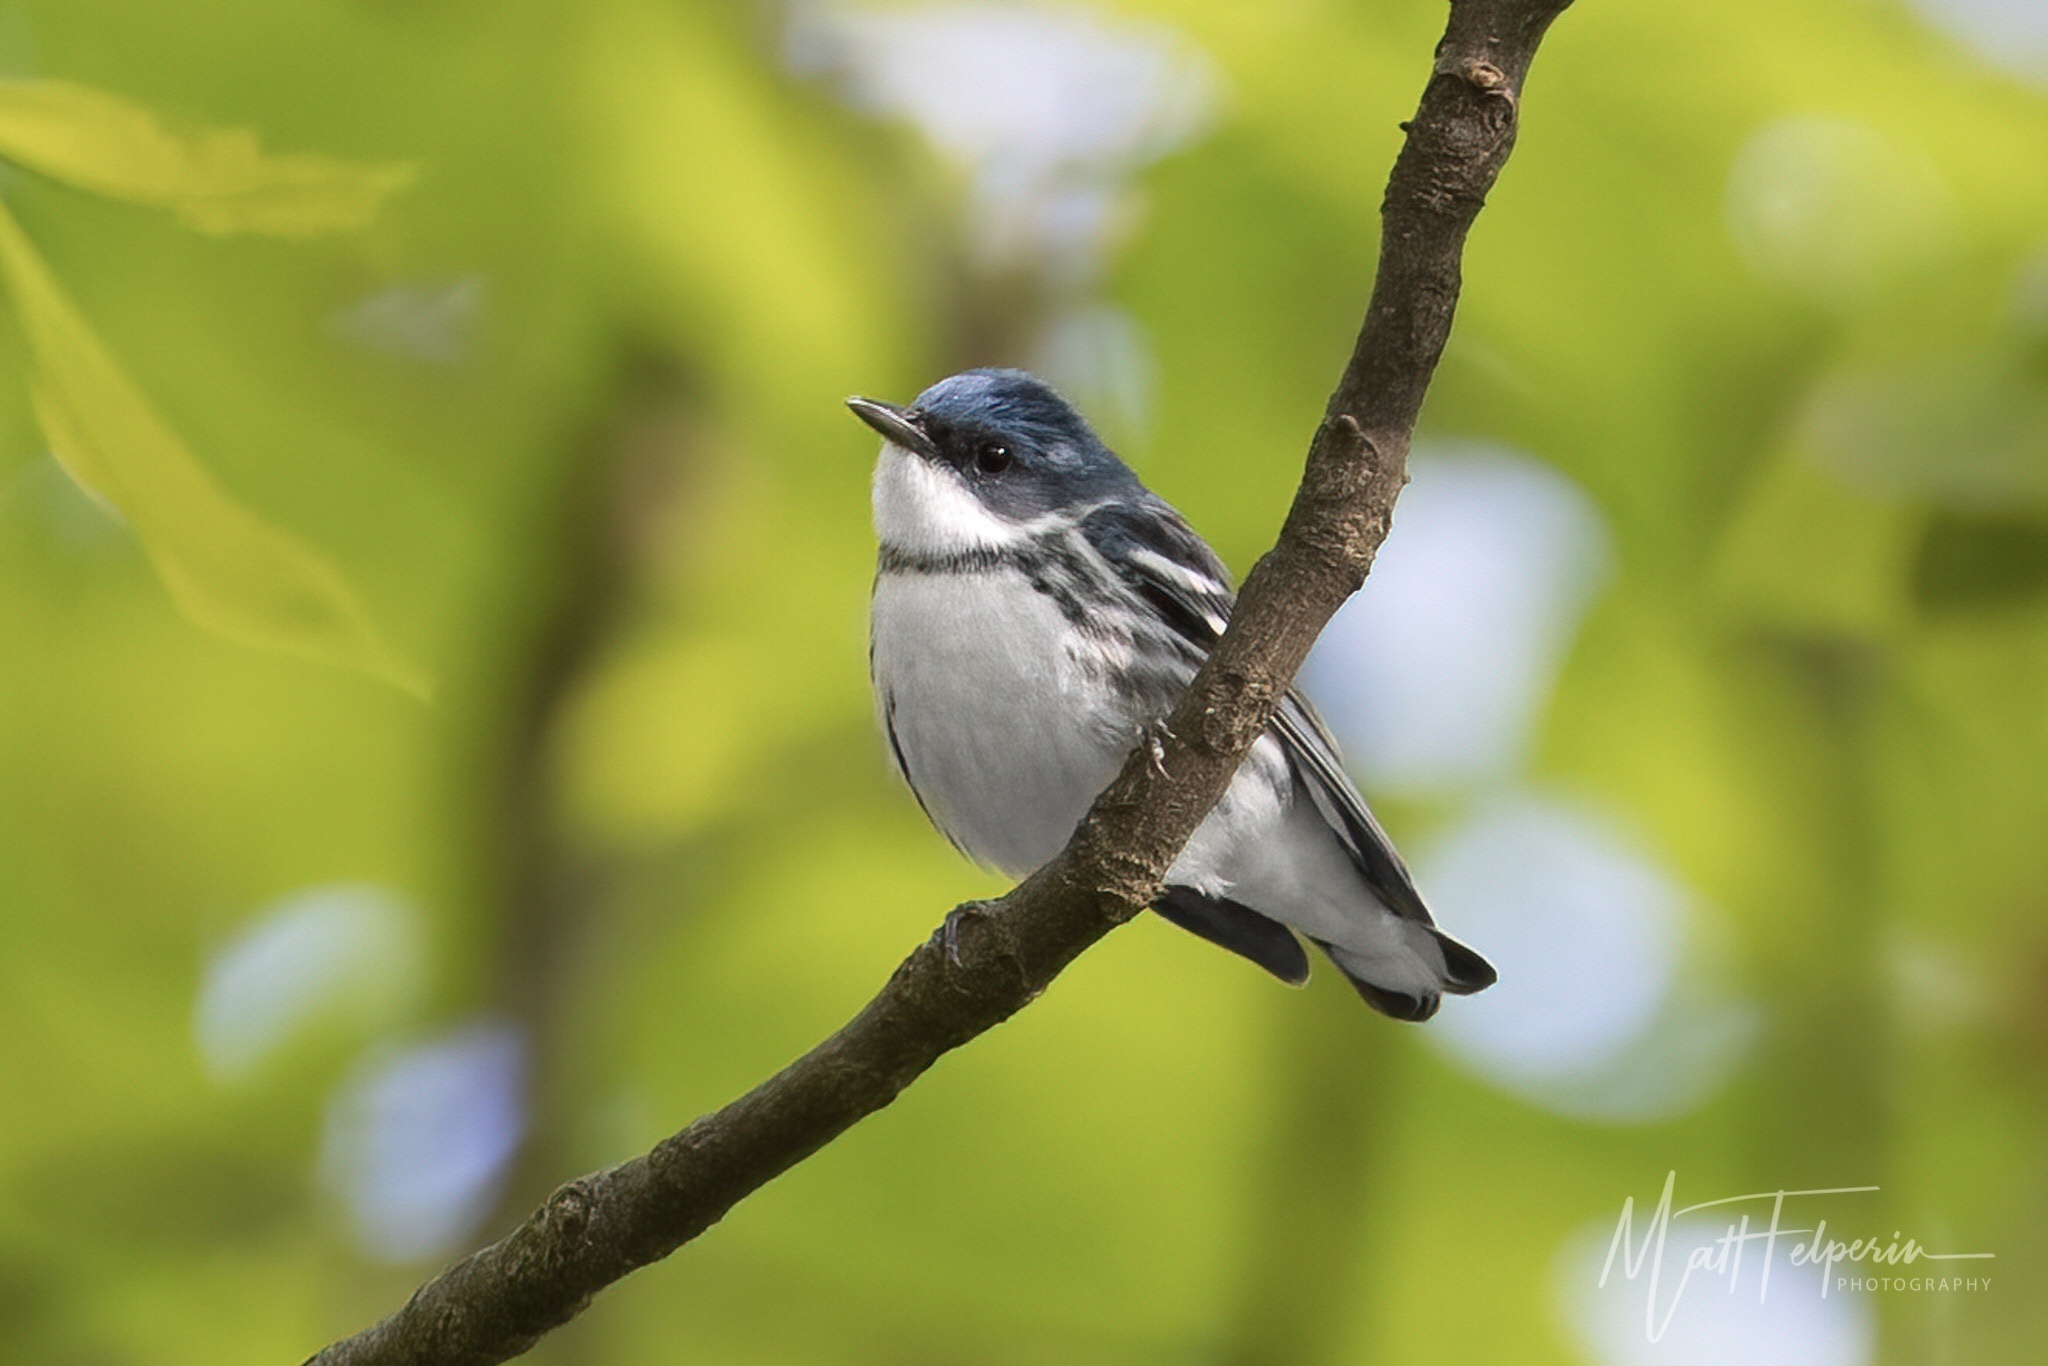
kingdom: Animalia
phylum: Chordata
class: Aves
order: Passeriformes
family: Parulidae
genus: Setophaga
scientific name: Setophaga cerulea
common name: Cerulean warbler
